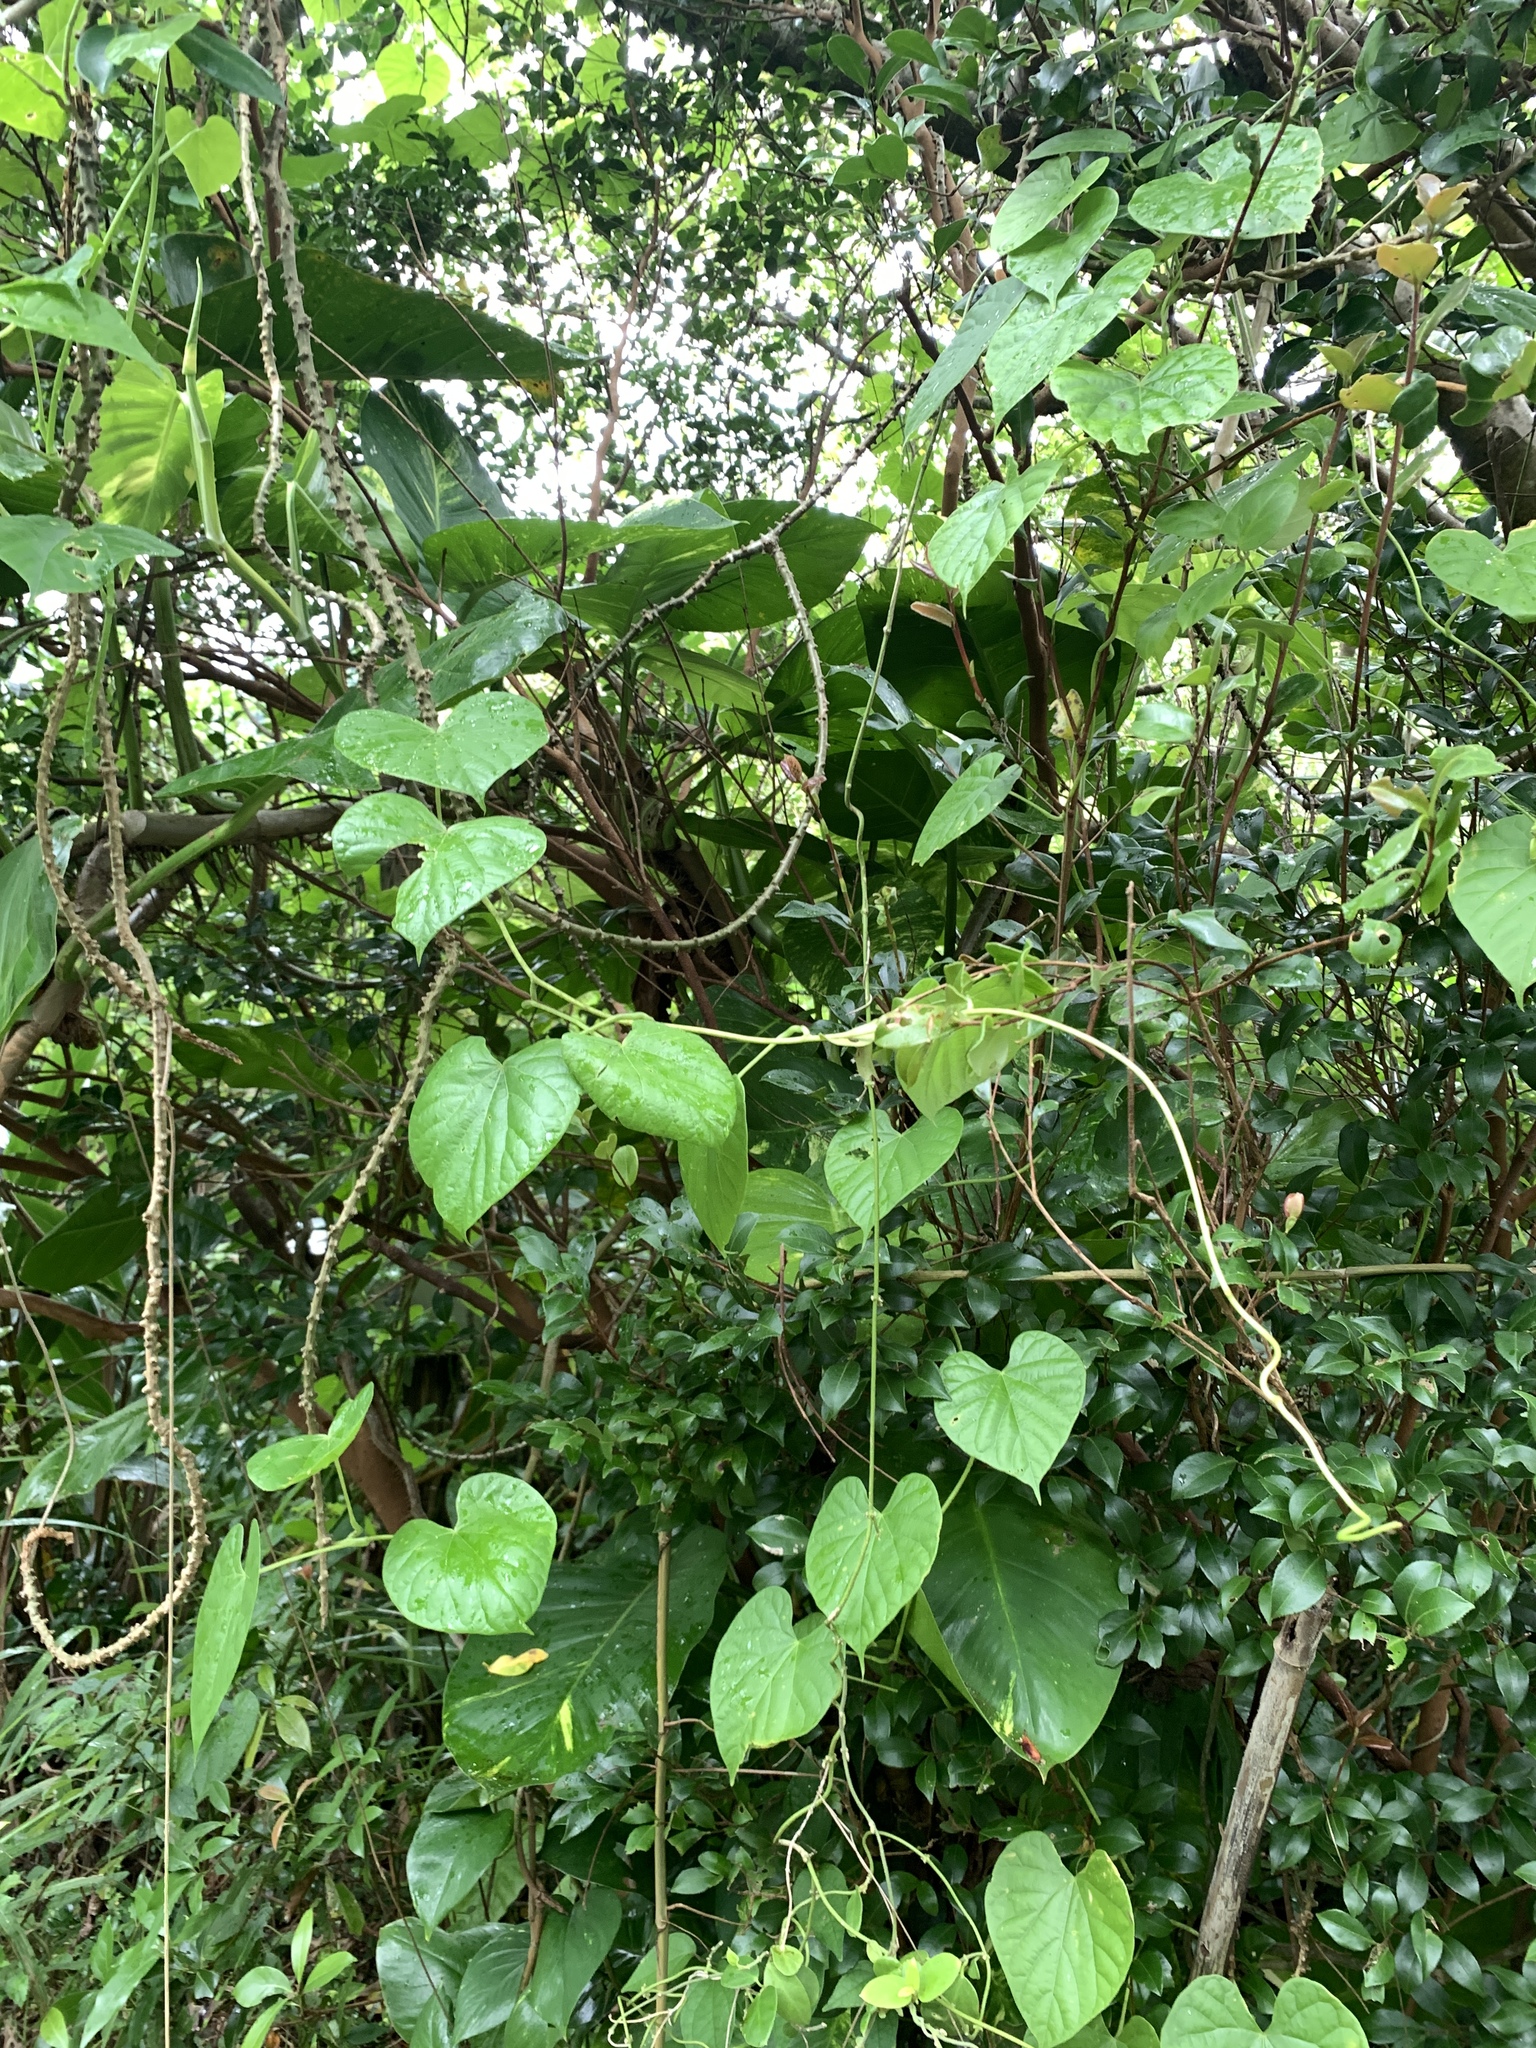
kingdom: Plantae
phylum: Tracheophyta
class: Magnoliopsida
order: Ranunculales
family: Menispermaceae
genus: Tinospora
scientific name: Tinospora crispa
